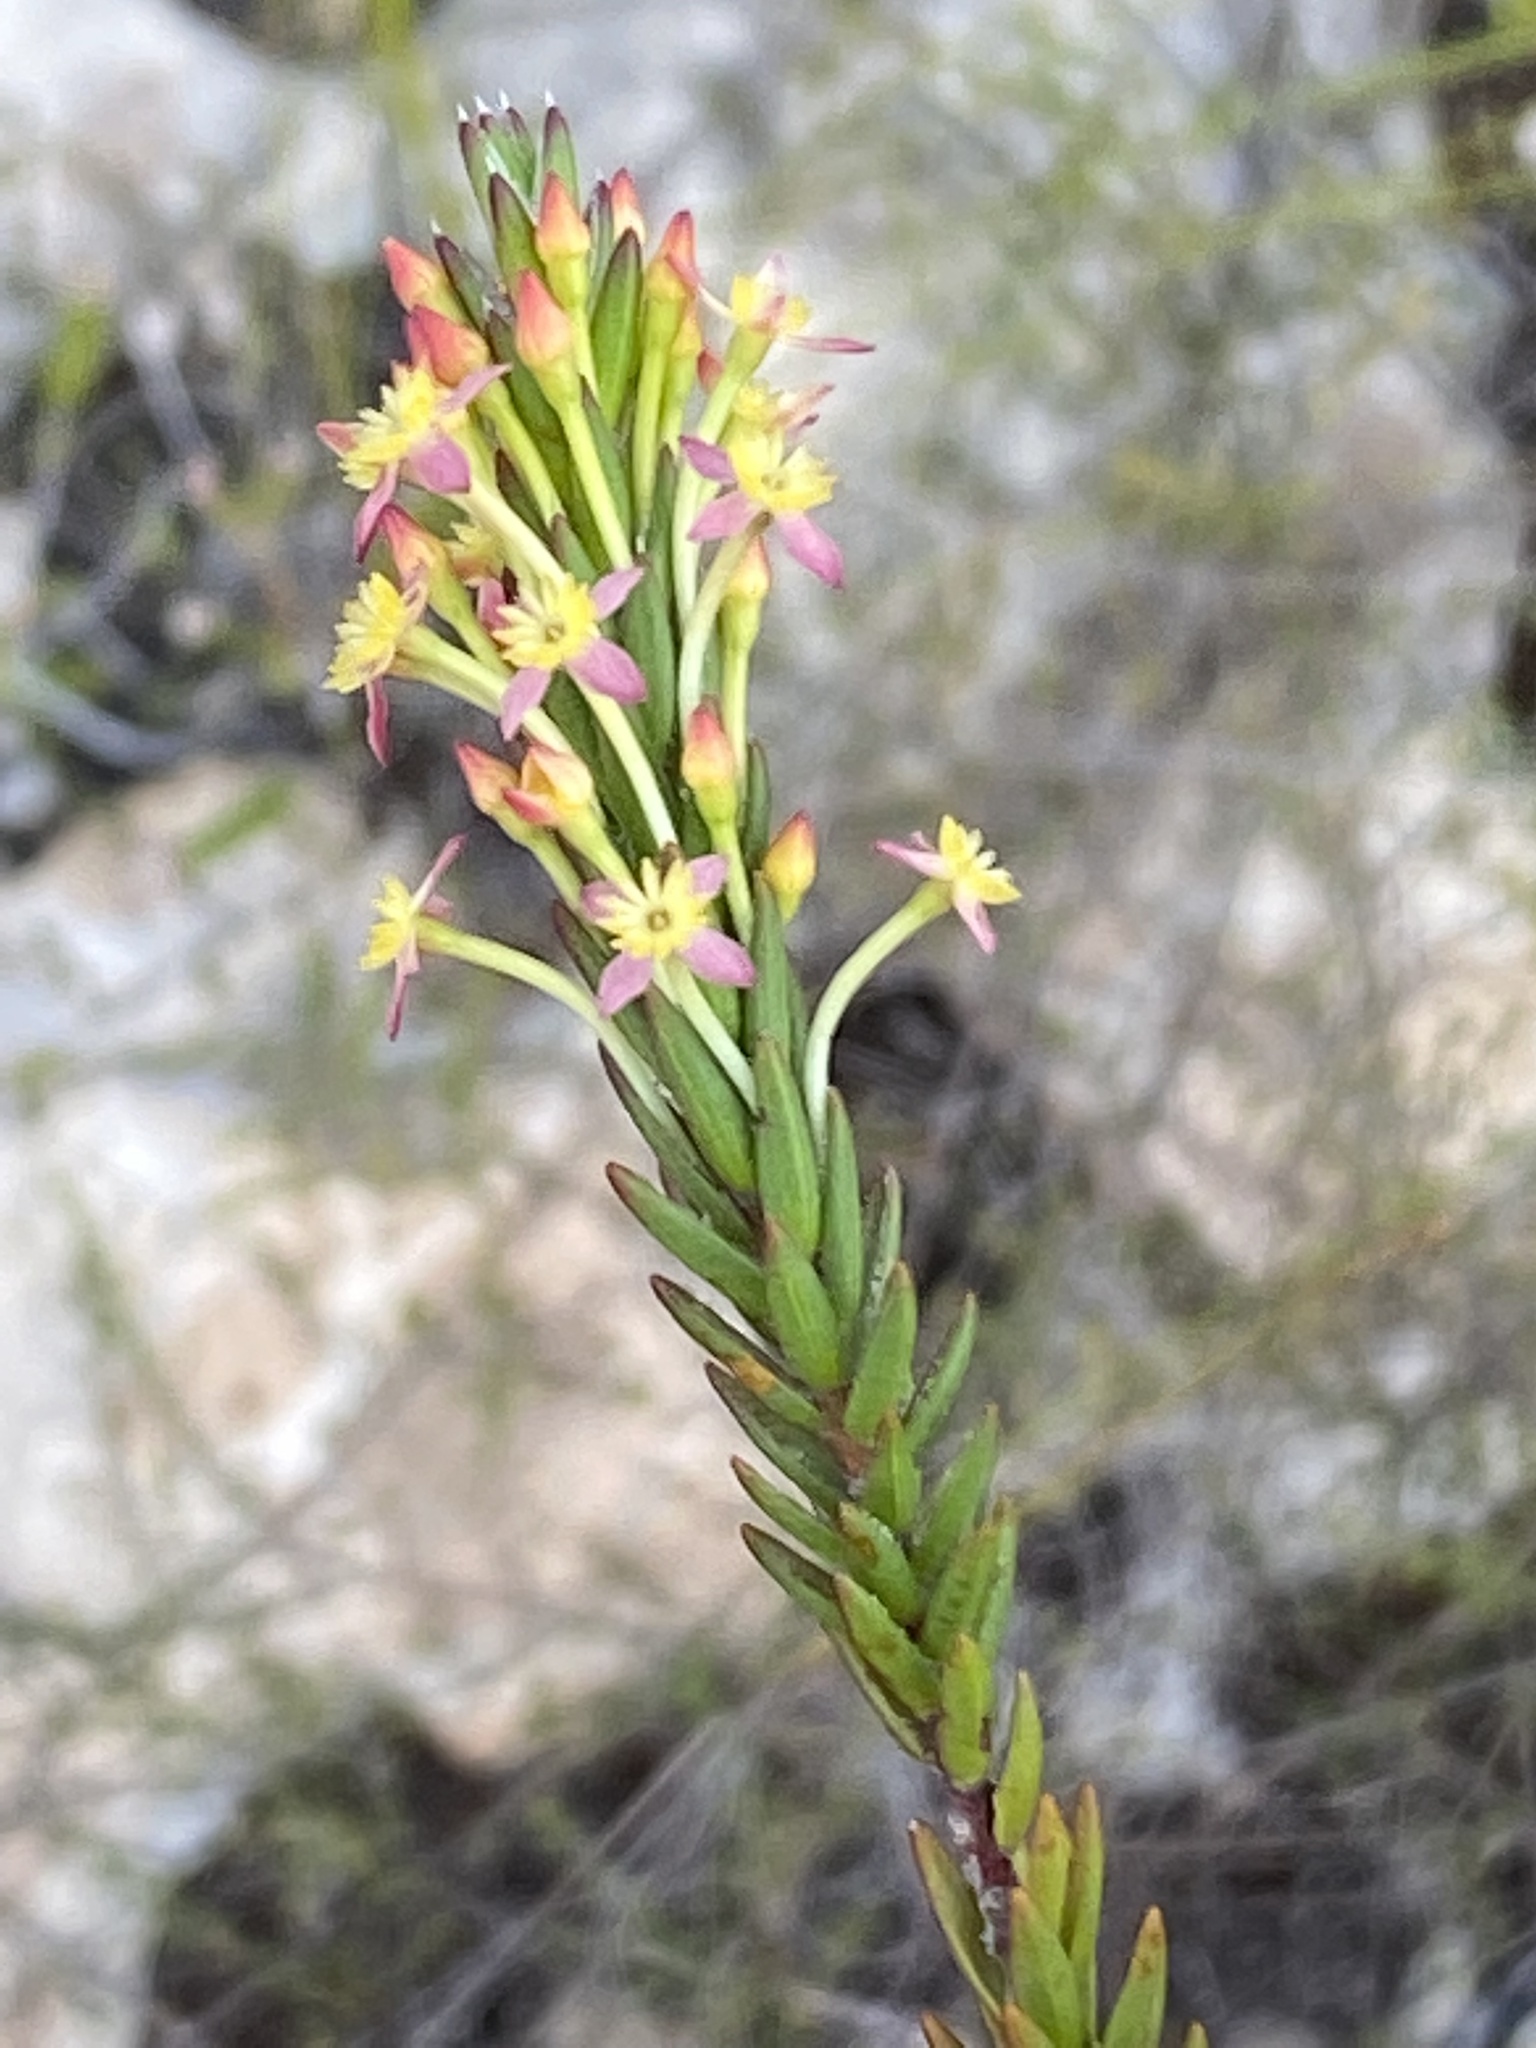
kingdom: Plantae
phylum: Tracheophyta
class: Magnoliopsida
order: Malvales
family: Thymelaeaceae
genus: Struthiola
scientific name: Struthiola rigida
